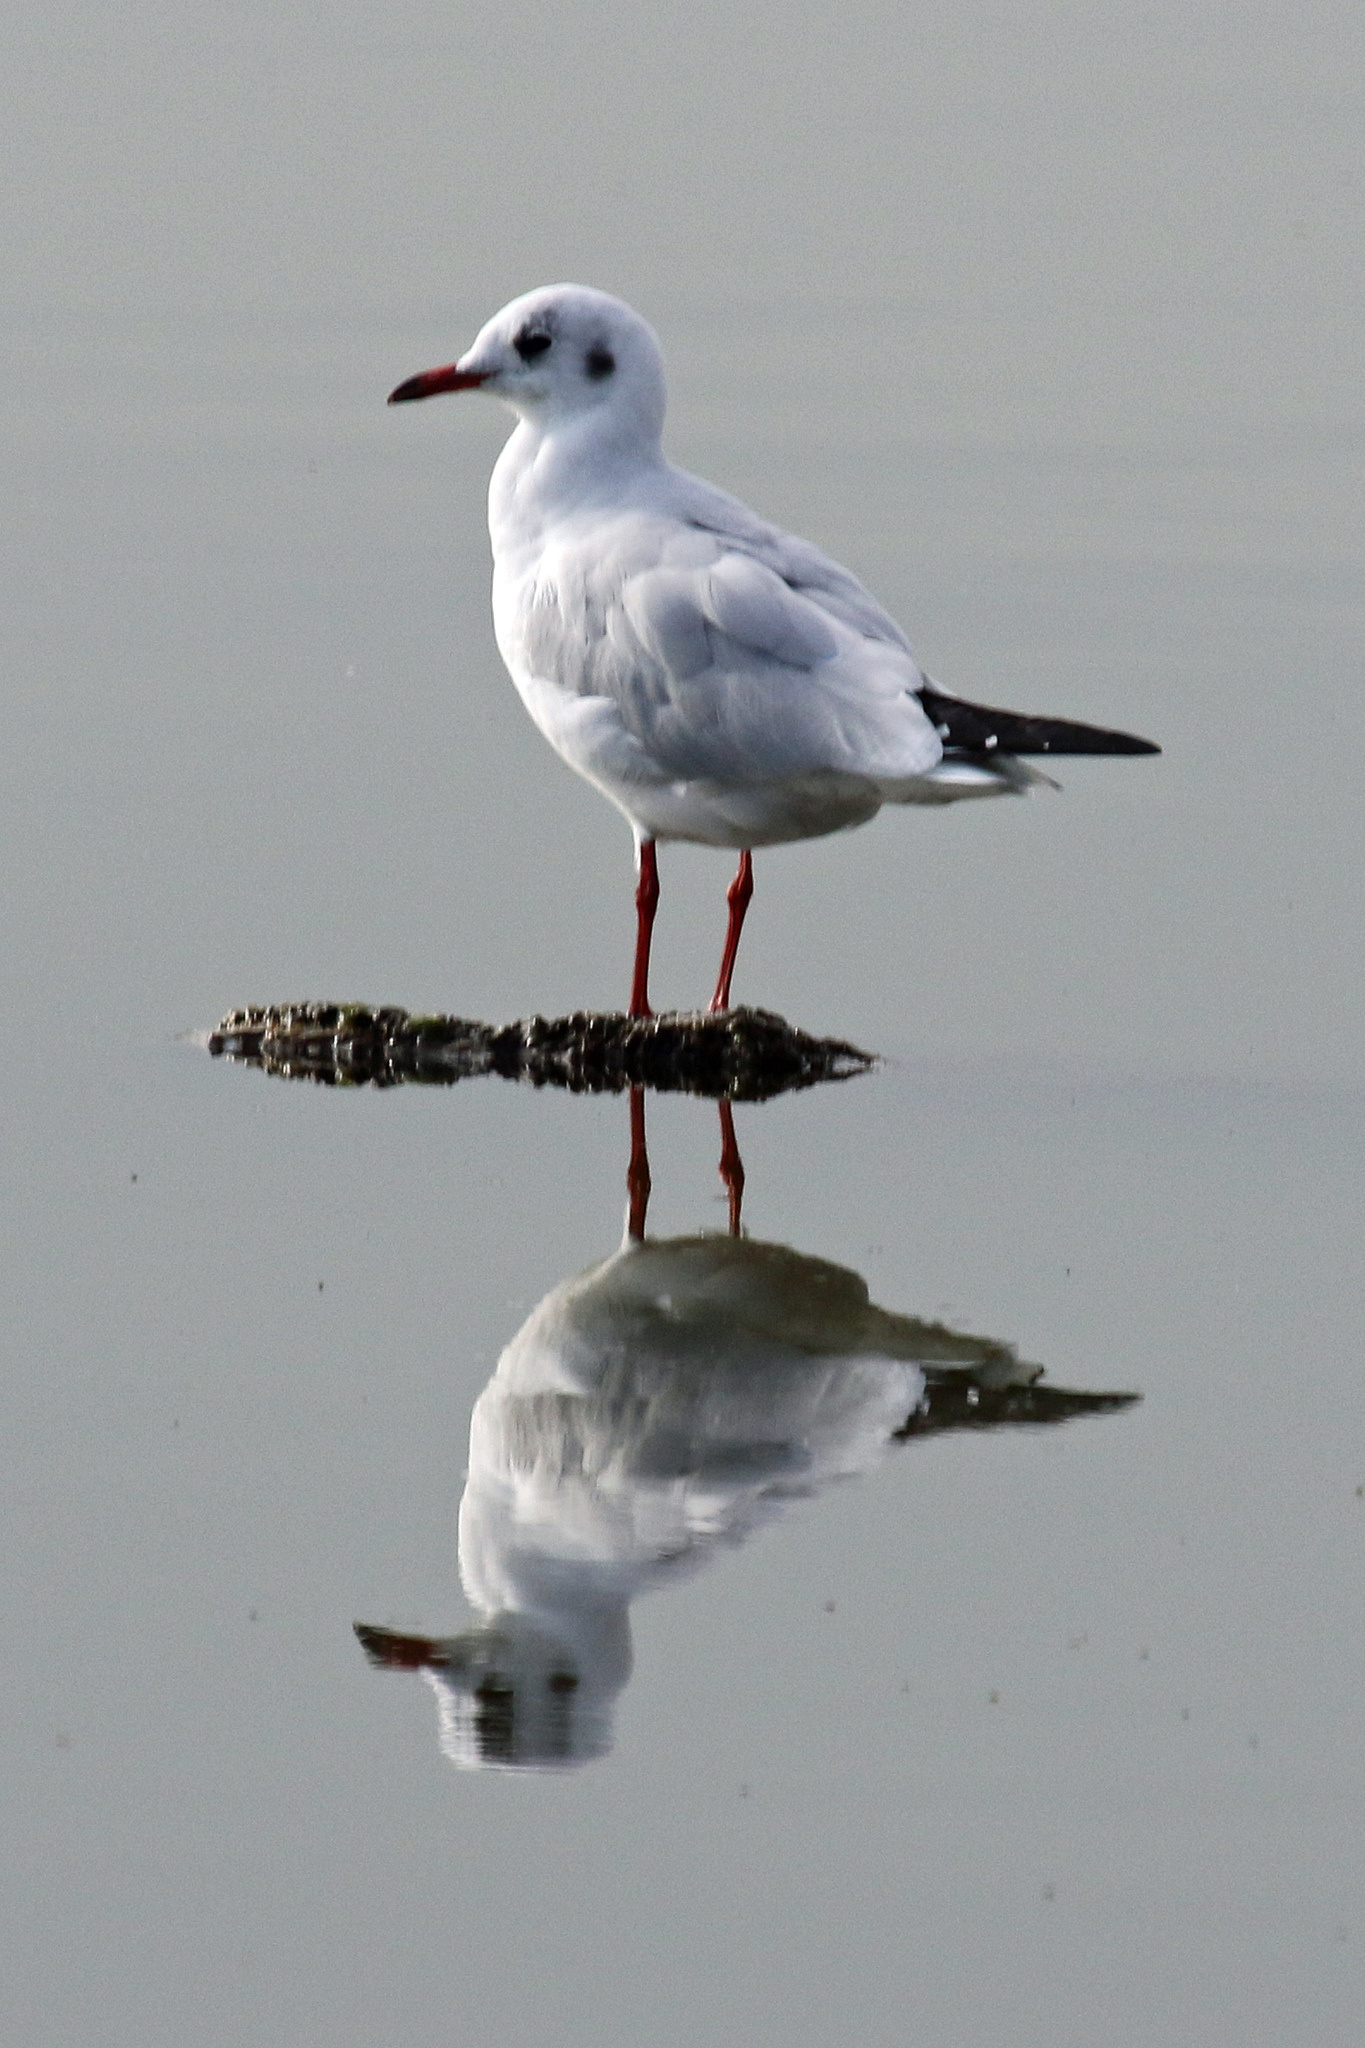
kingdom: Animalia
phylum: Chordata
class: Aves
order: Charadriiformes
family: Laridae
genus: Chroicocephalus
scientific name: Chroicocephalus ridibundus
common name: Black-headed gull
